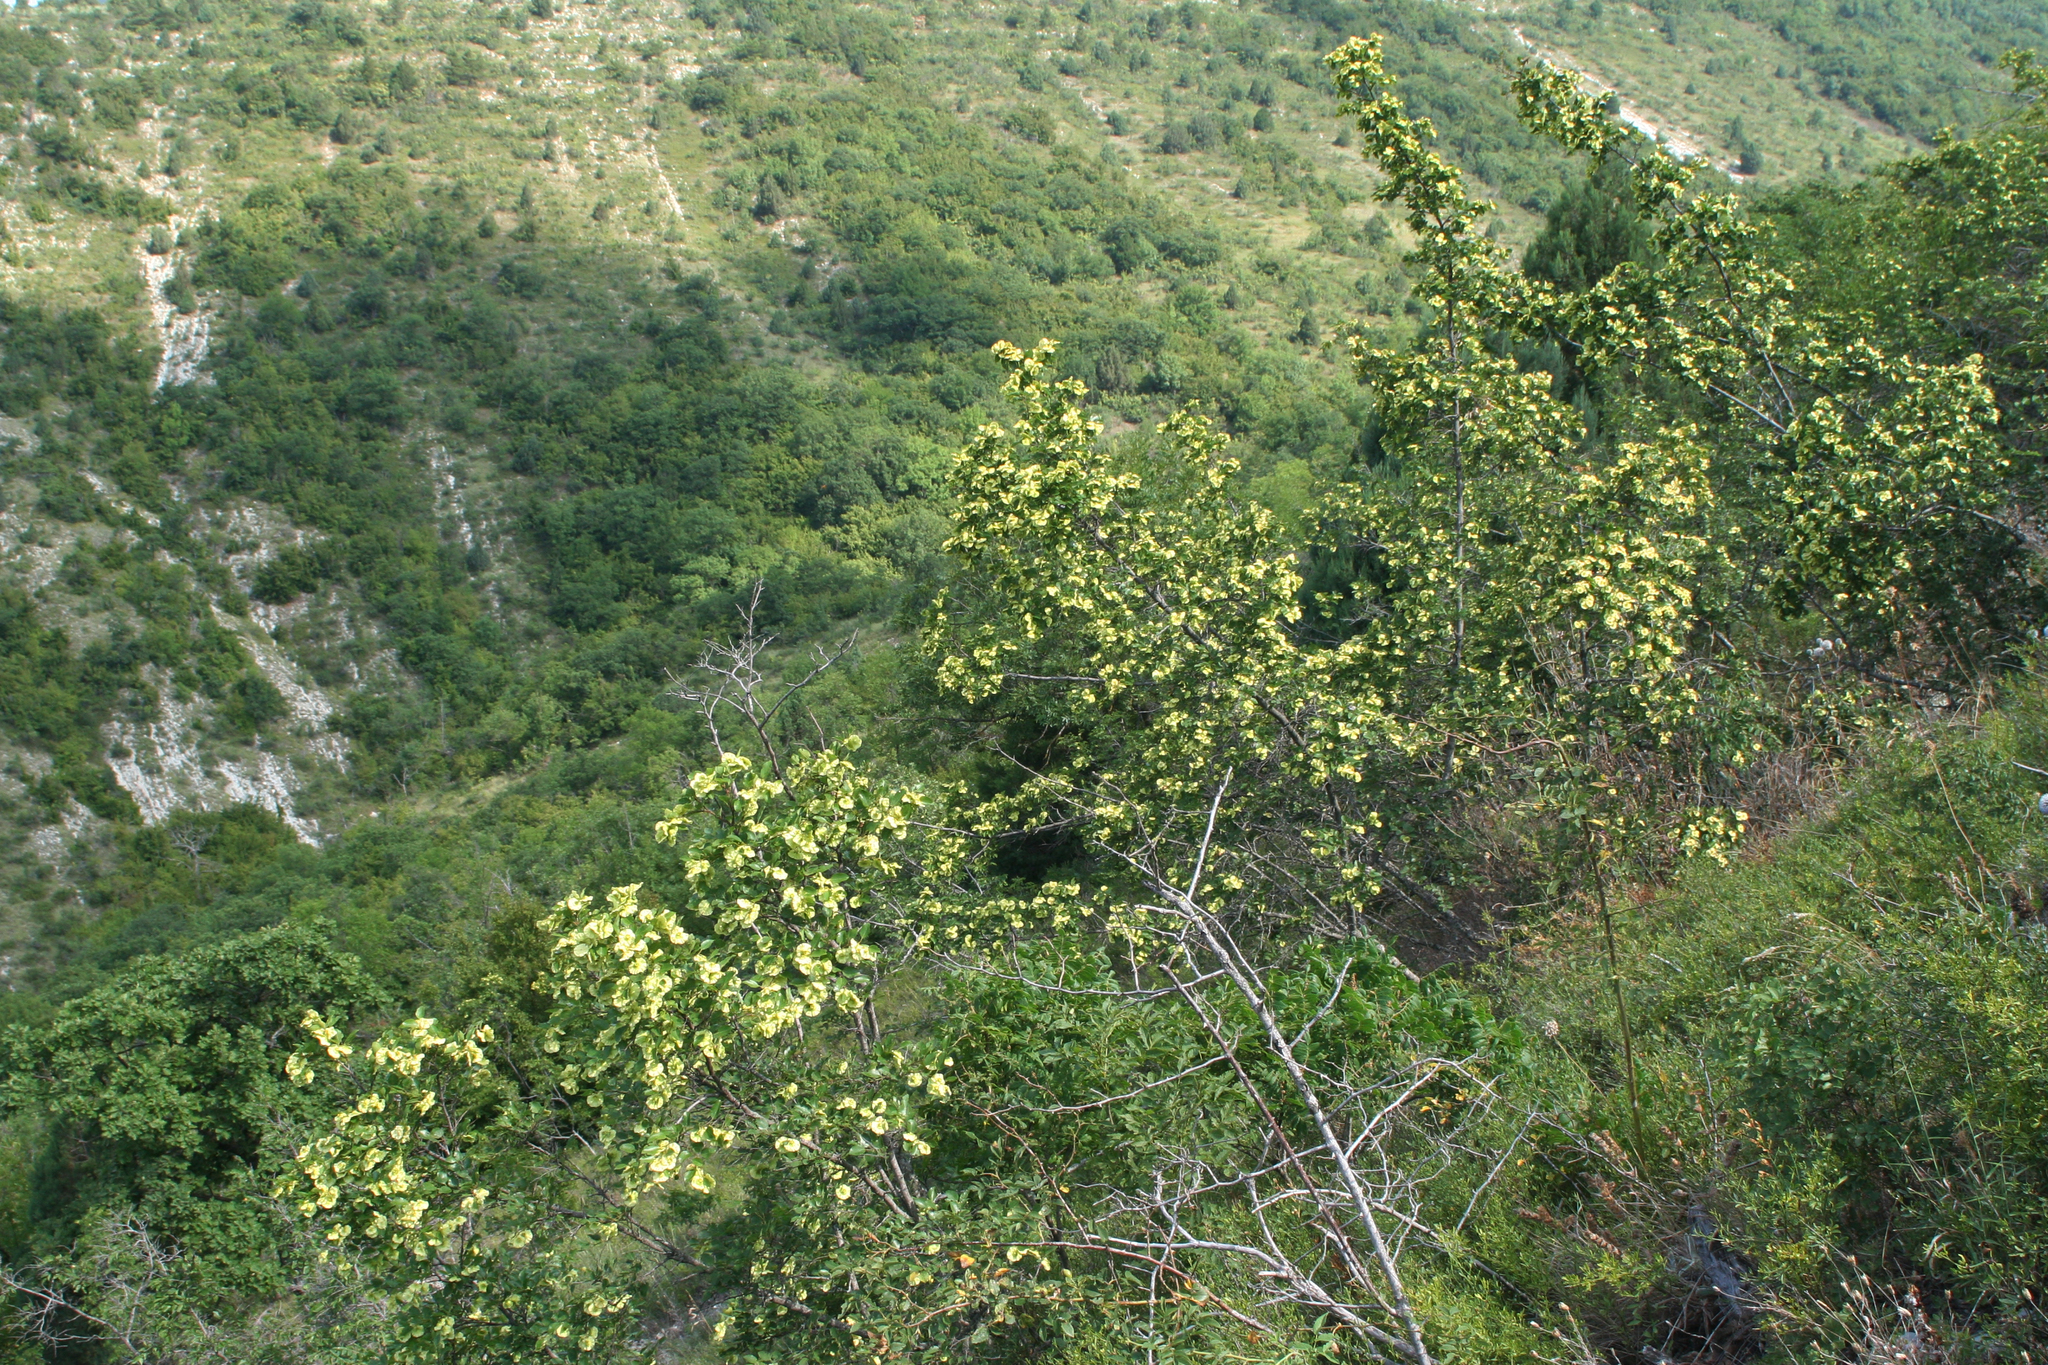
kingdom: Plantae
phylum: Tracheophyta
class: Magnoliopsida
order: Rosales
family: Rhamnaceae
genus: Paliurus
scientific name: Paliurus spina-christi
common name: Jeruselem thorn
